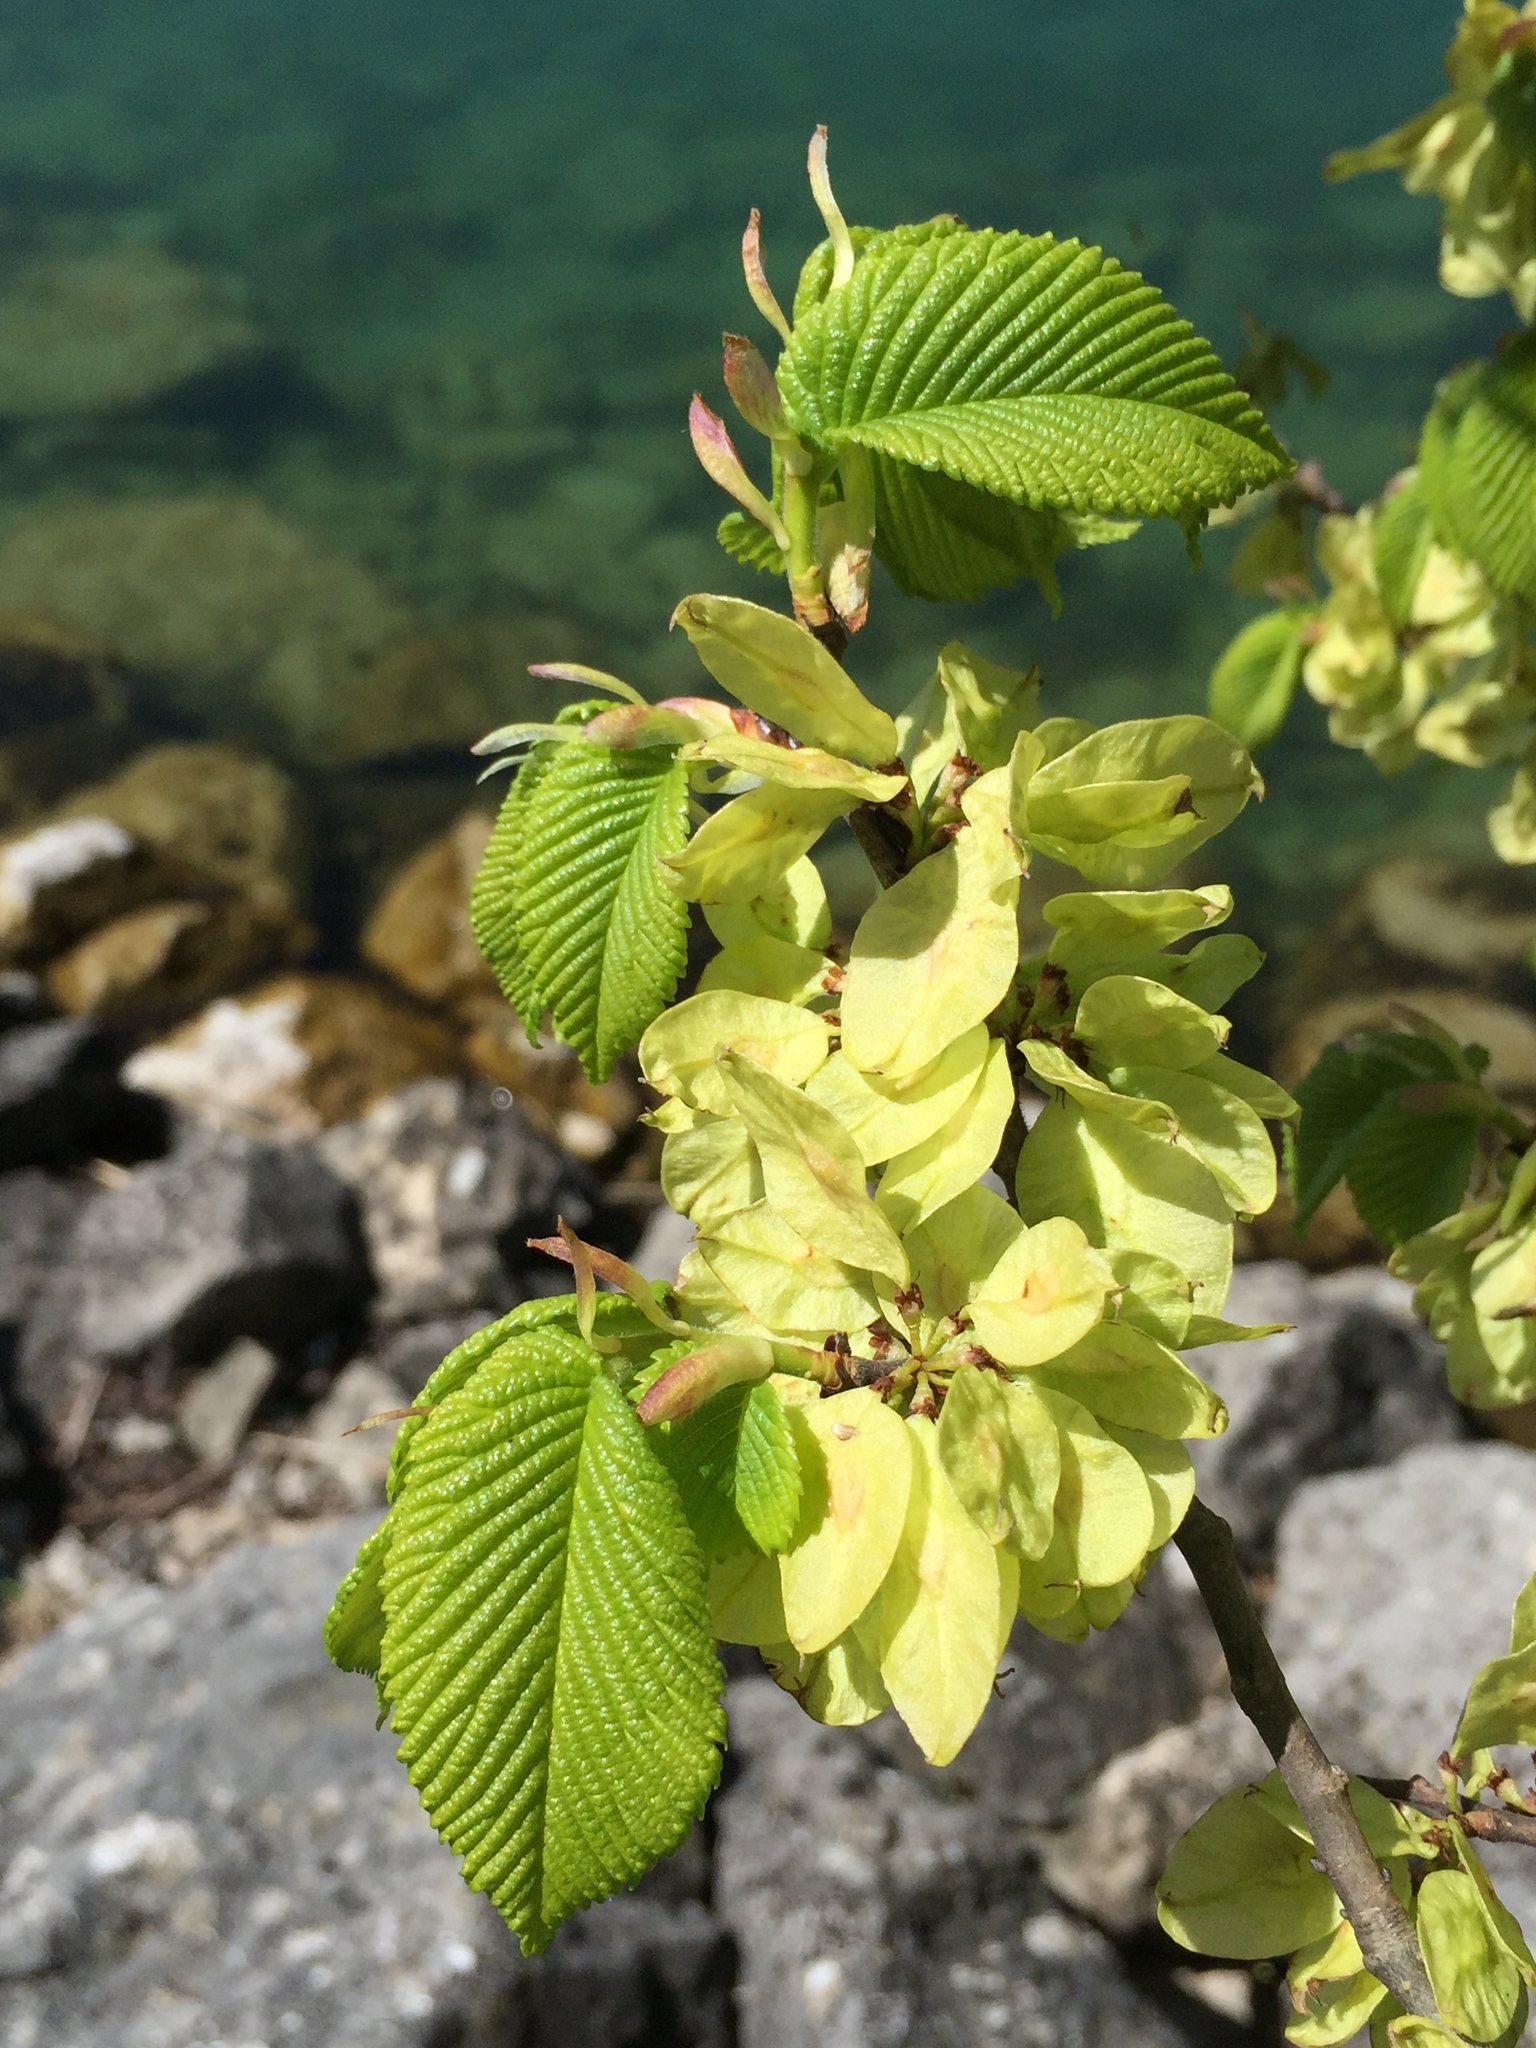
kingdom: Plantae
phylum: Tracheophyta
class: Magnoliopsida
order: Rosales
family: Ulmaceae
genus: Ulmus
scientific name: Ulmus glabra
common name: Wych elm
